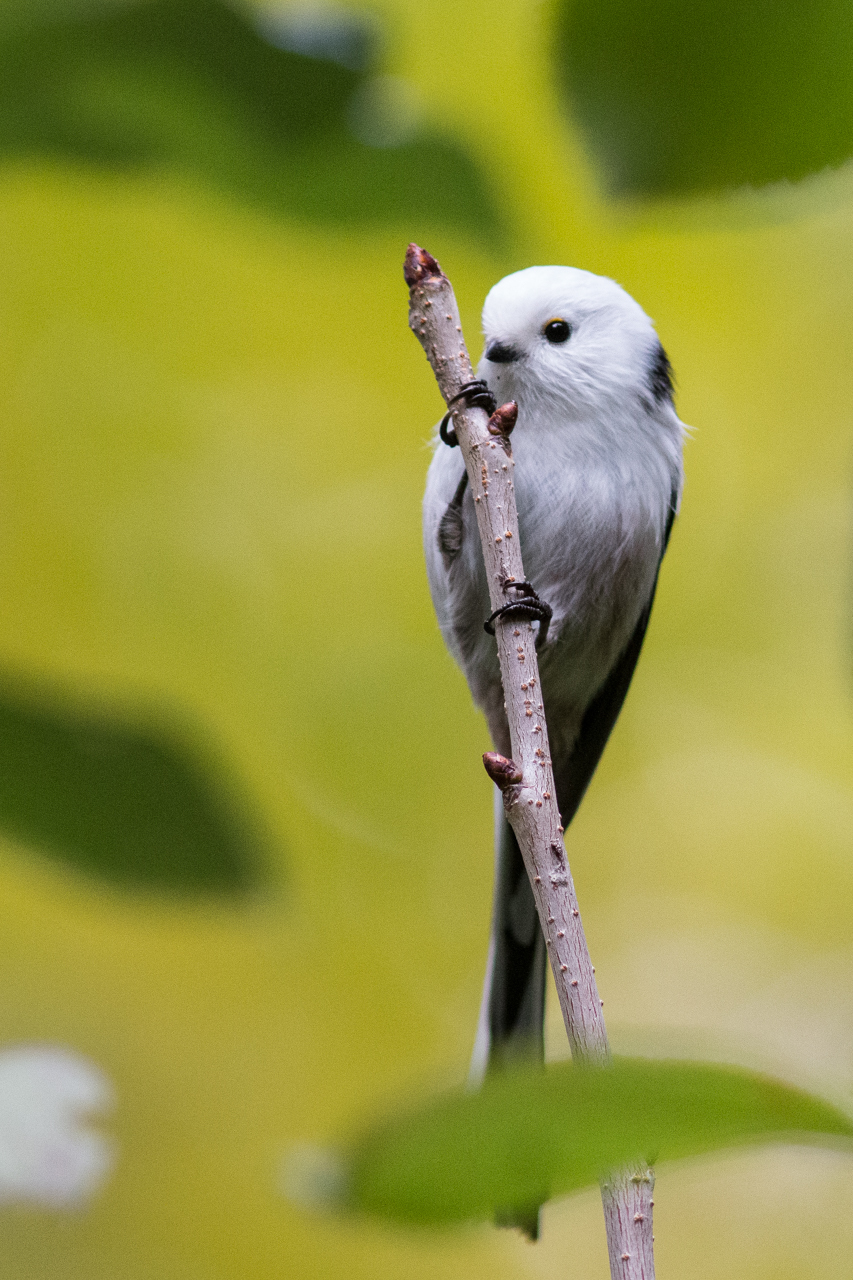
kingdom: Animalia
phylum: Chordata
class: Aves
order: Passeriformes
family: Aegithalidae
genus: Aegithalos
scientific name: Aegithalos caudatus
